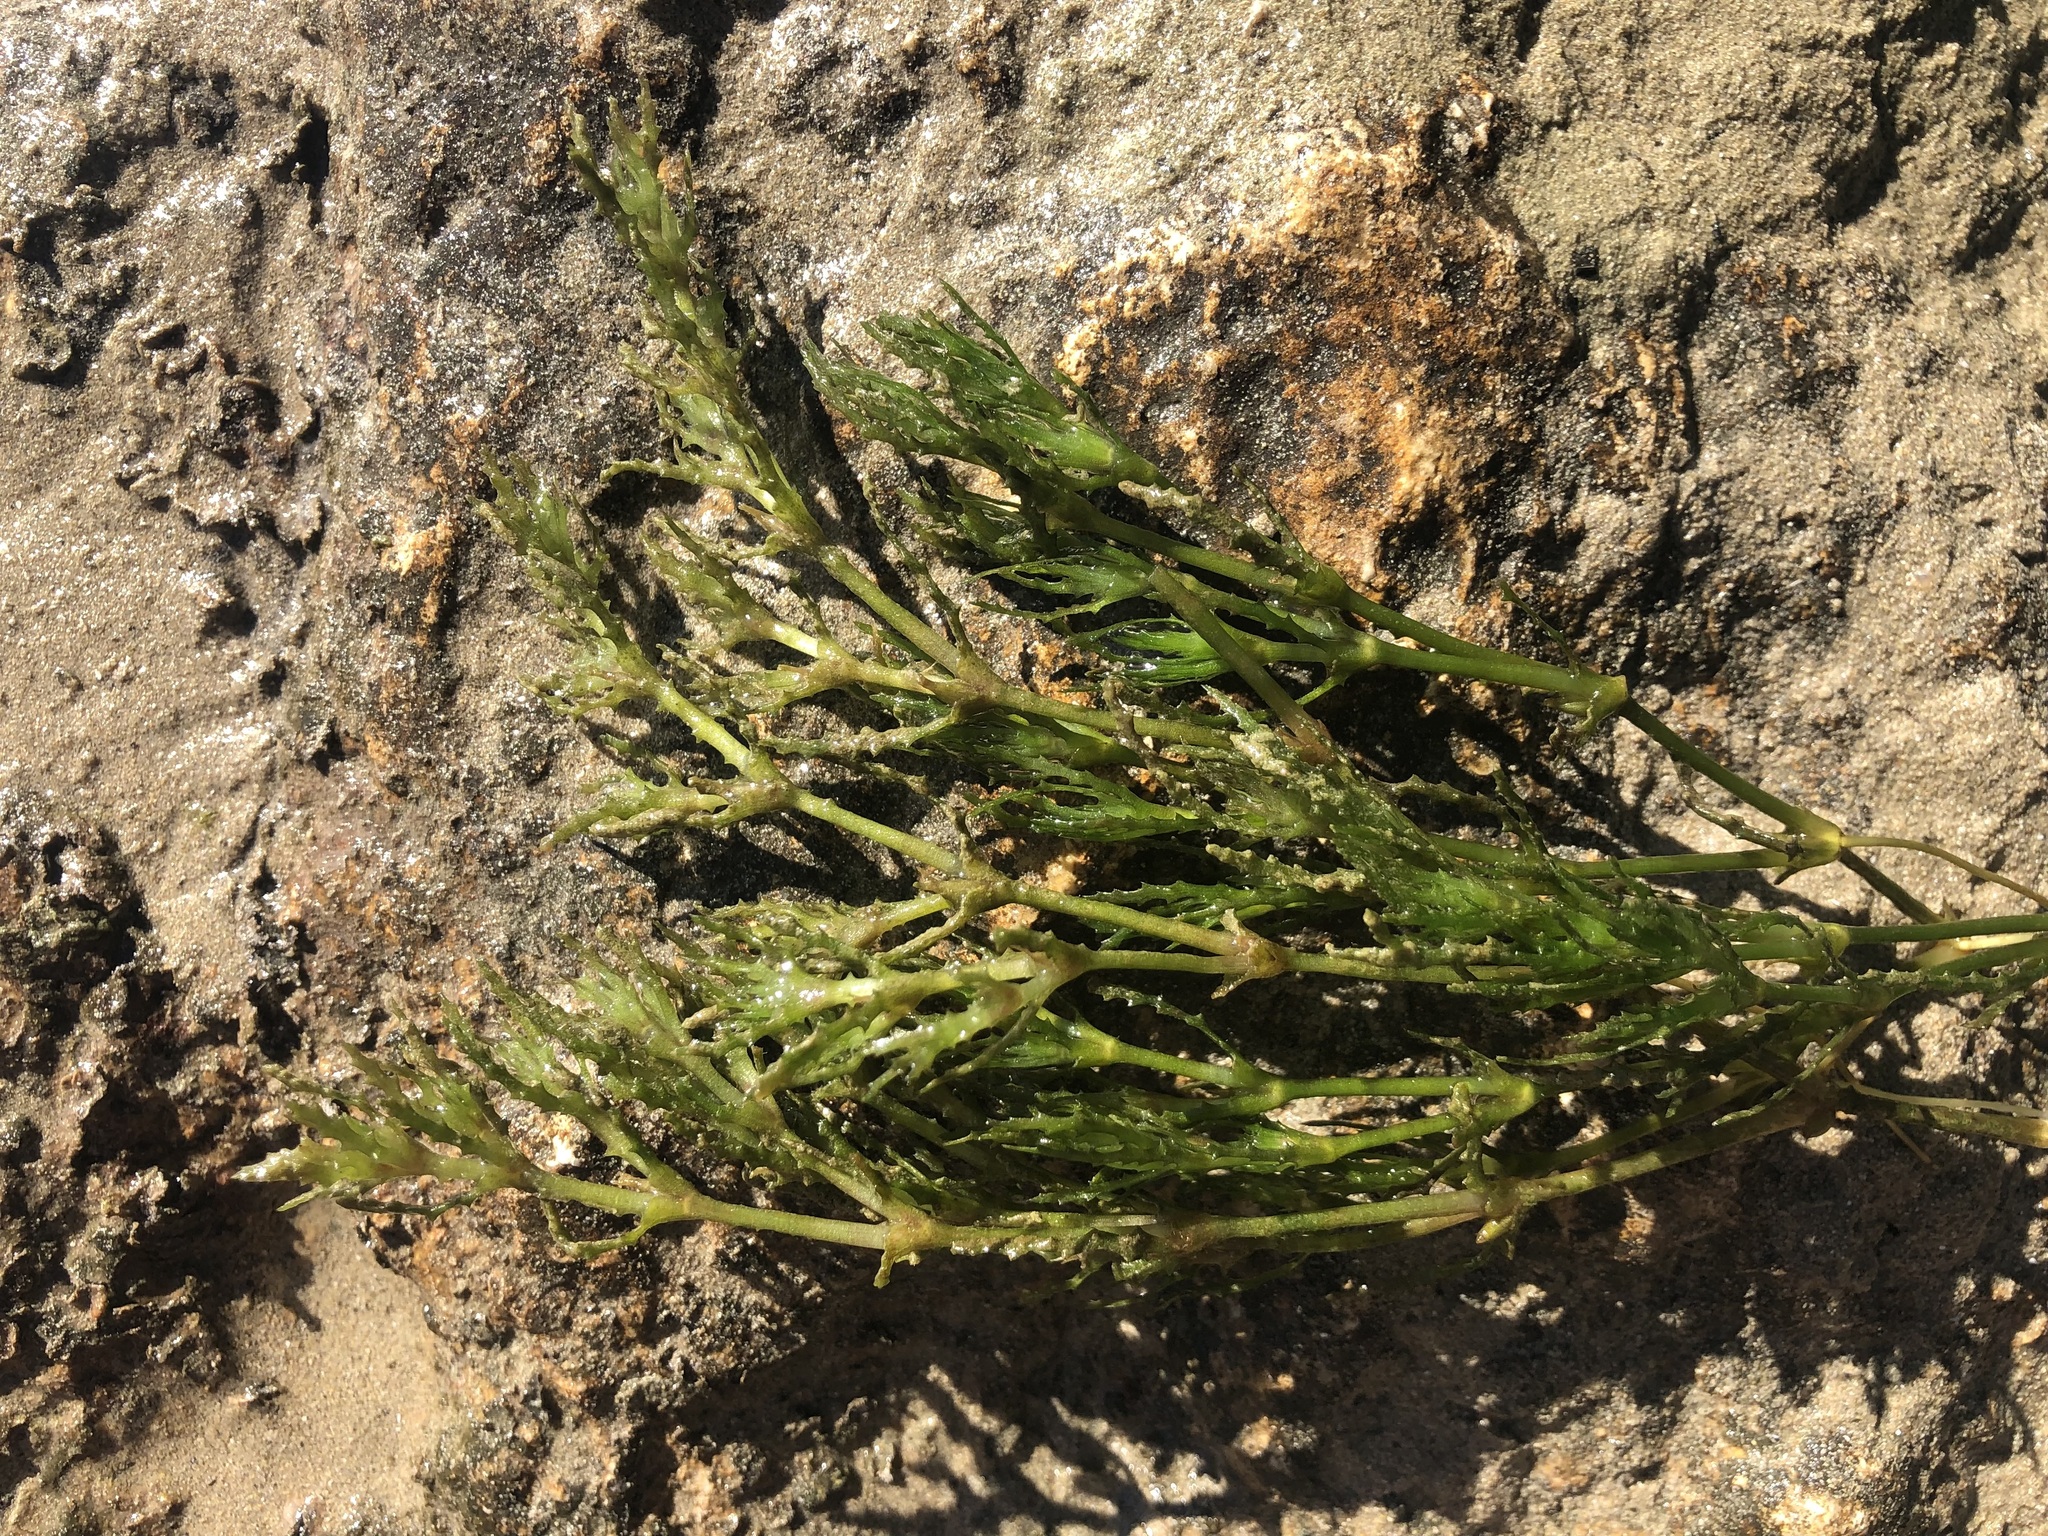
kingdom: Plantae
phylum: Tracheophyta
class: Liliopsida
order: Alismatales
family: Hydrocharitaceae
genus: Najas
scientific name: Najas marina
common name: Holly-leaved naiad
